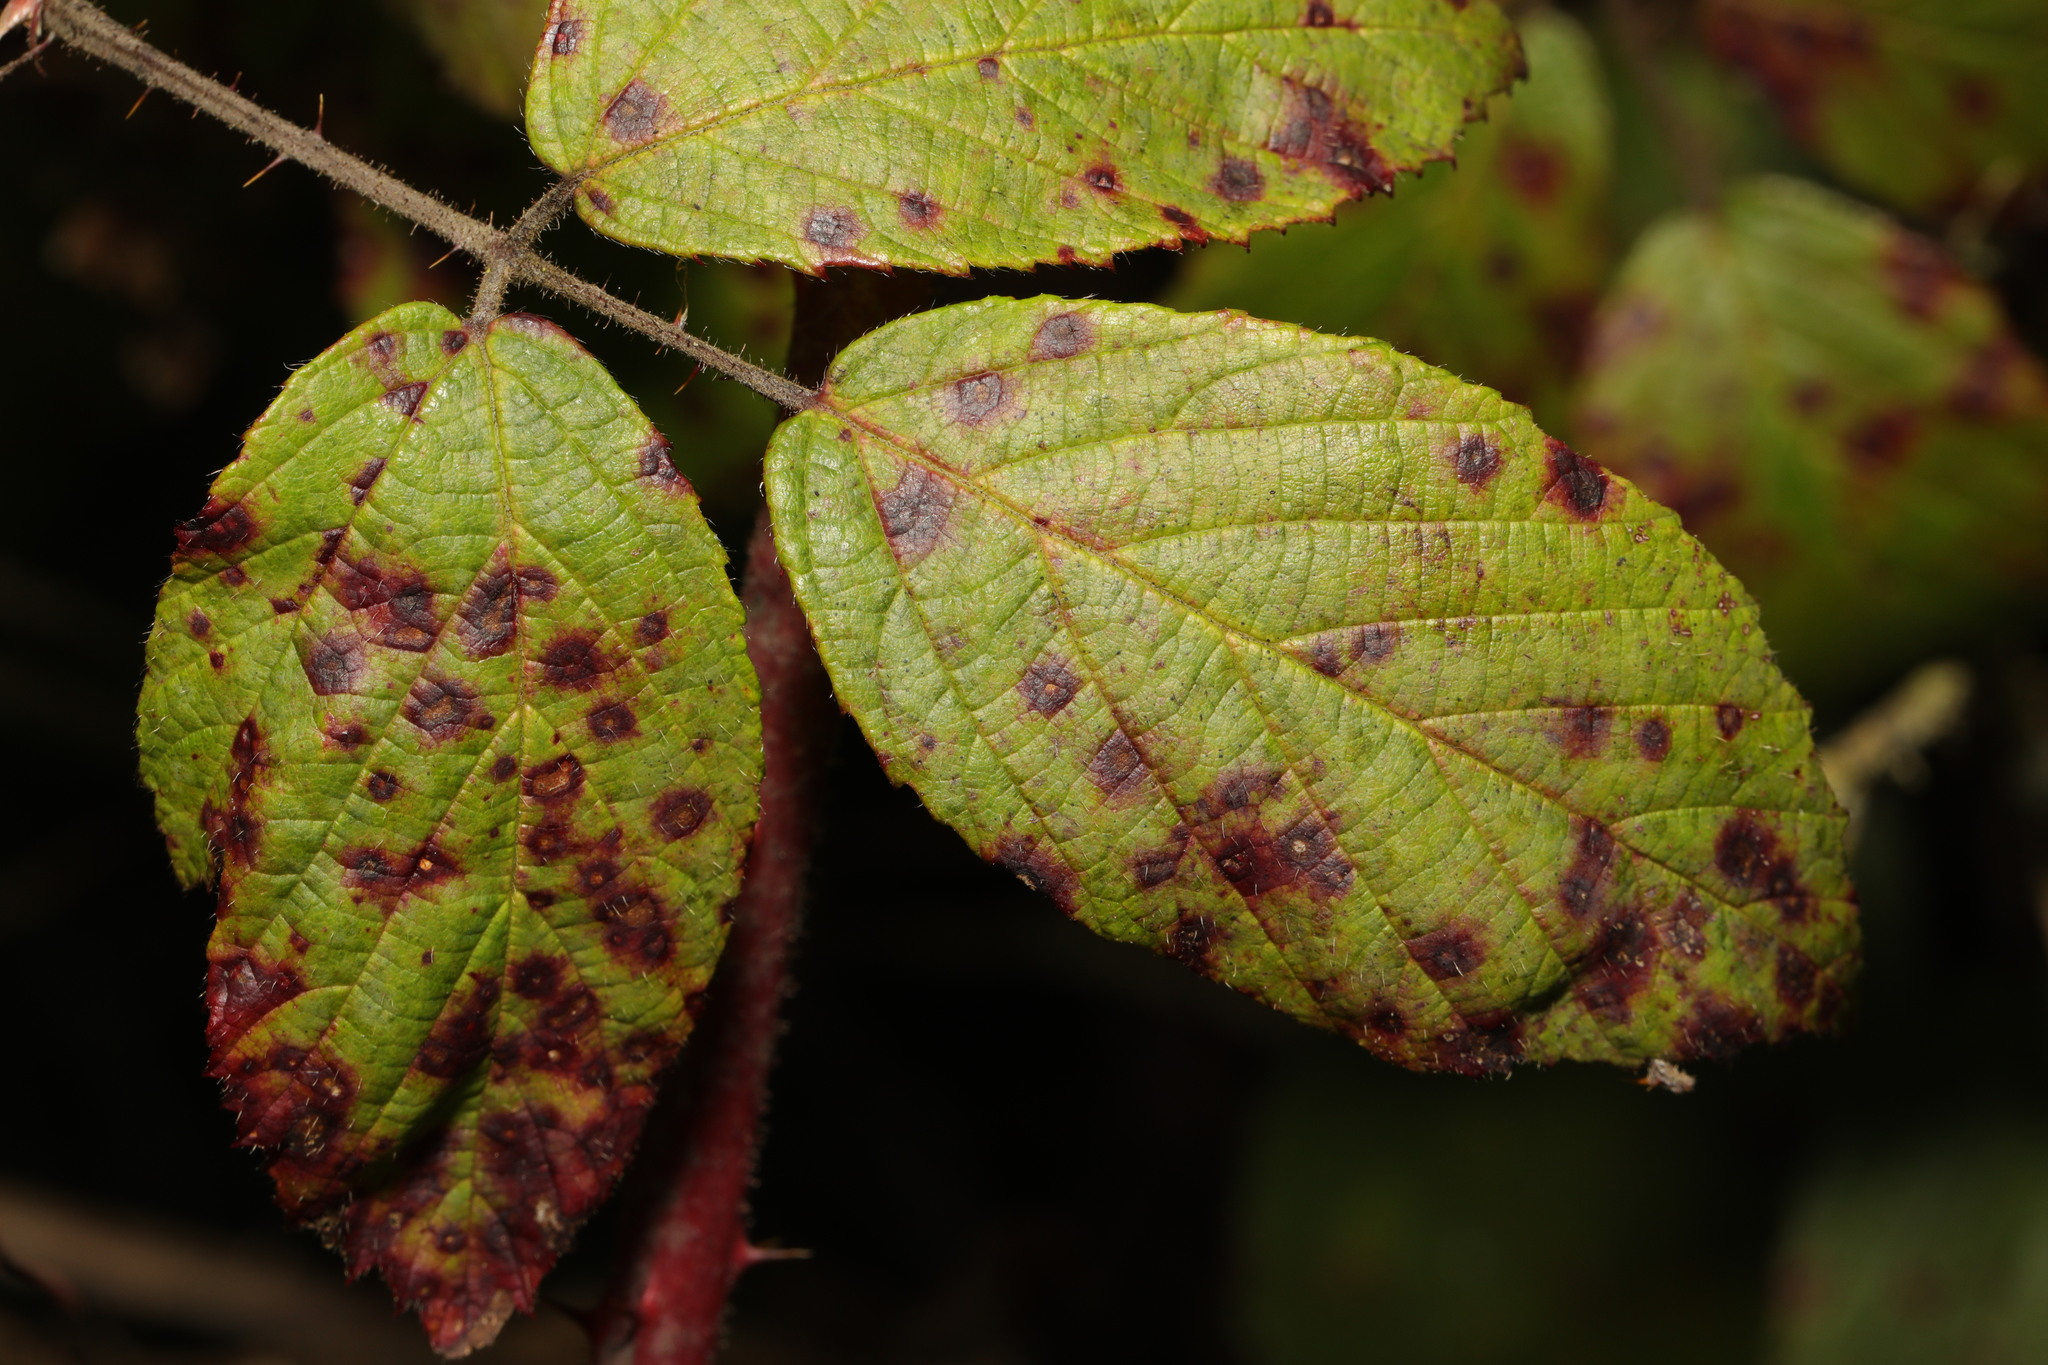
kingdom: Fungi
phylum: Basidiomycota
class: Pucciniomycetes
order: Pucciniales
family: Phragmidiaceae
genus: Phragmidium
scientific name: Phragmidium violaceum
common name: Violet bramble rust
